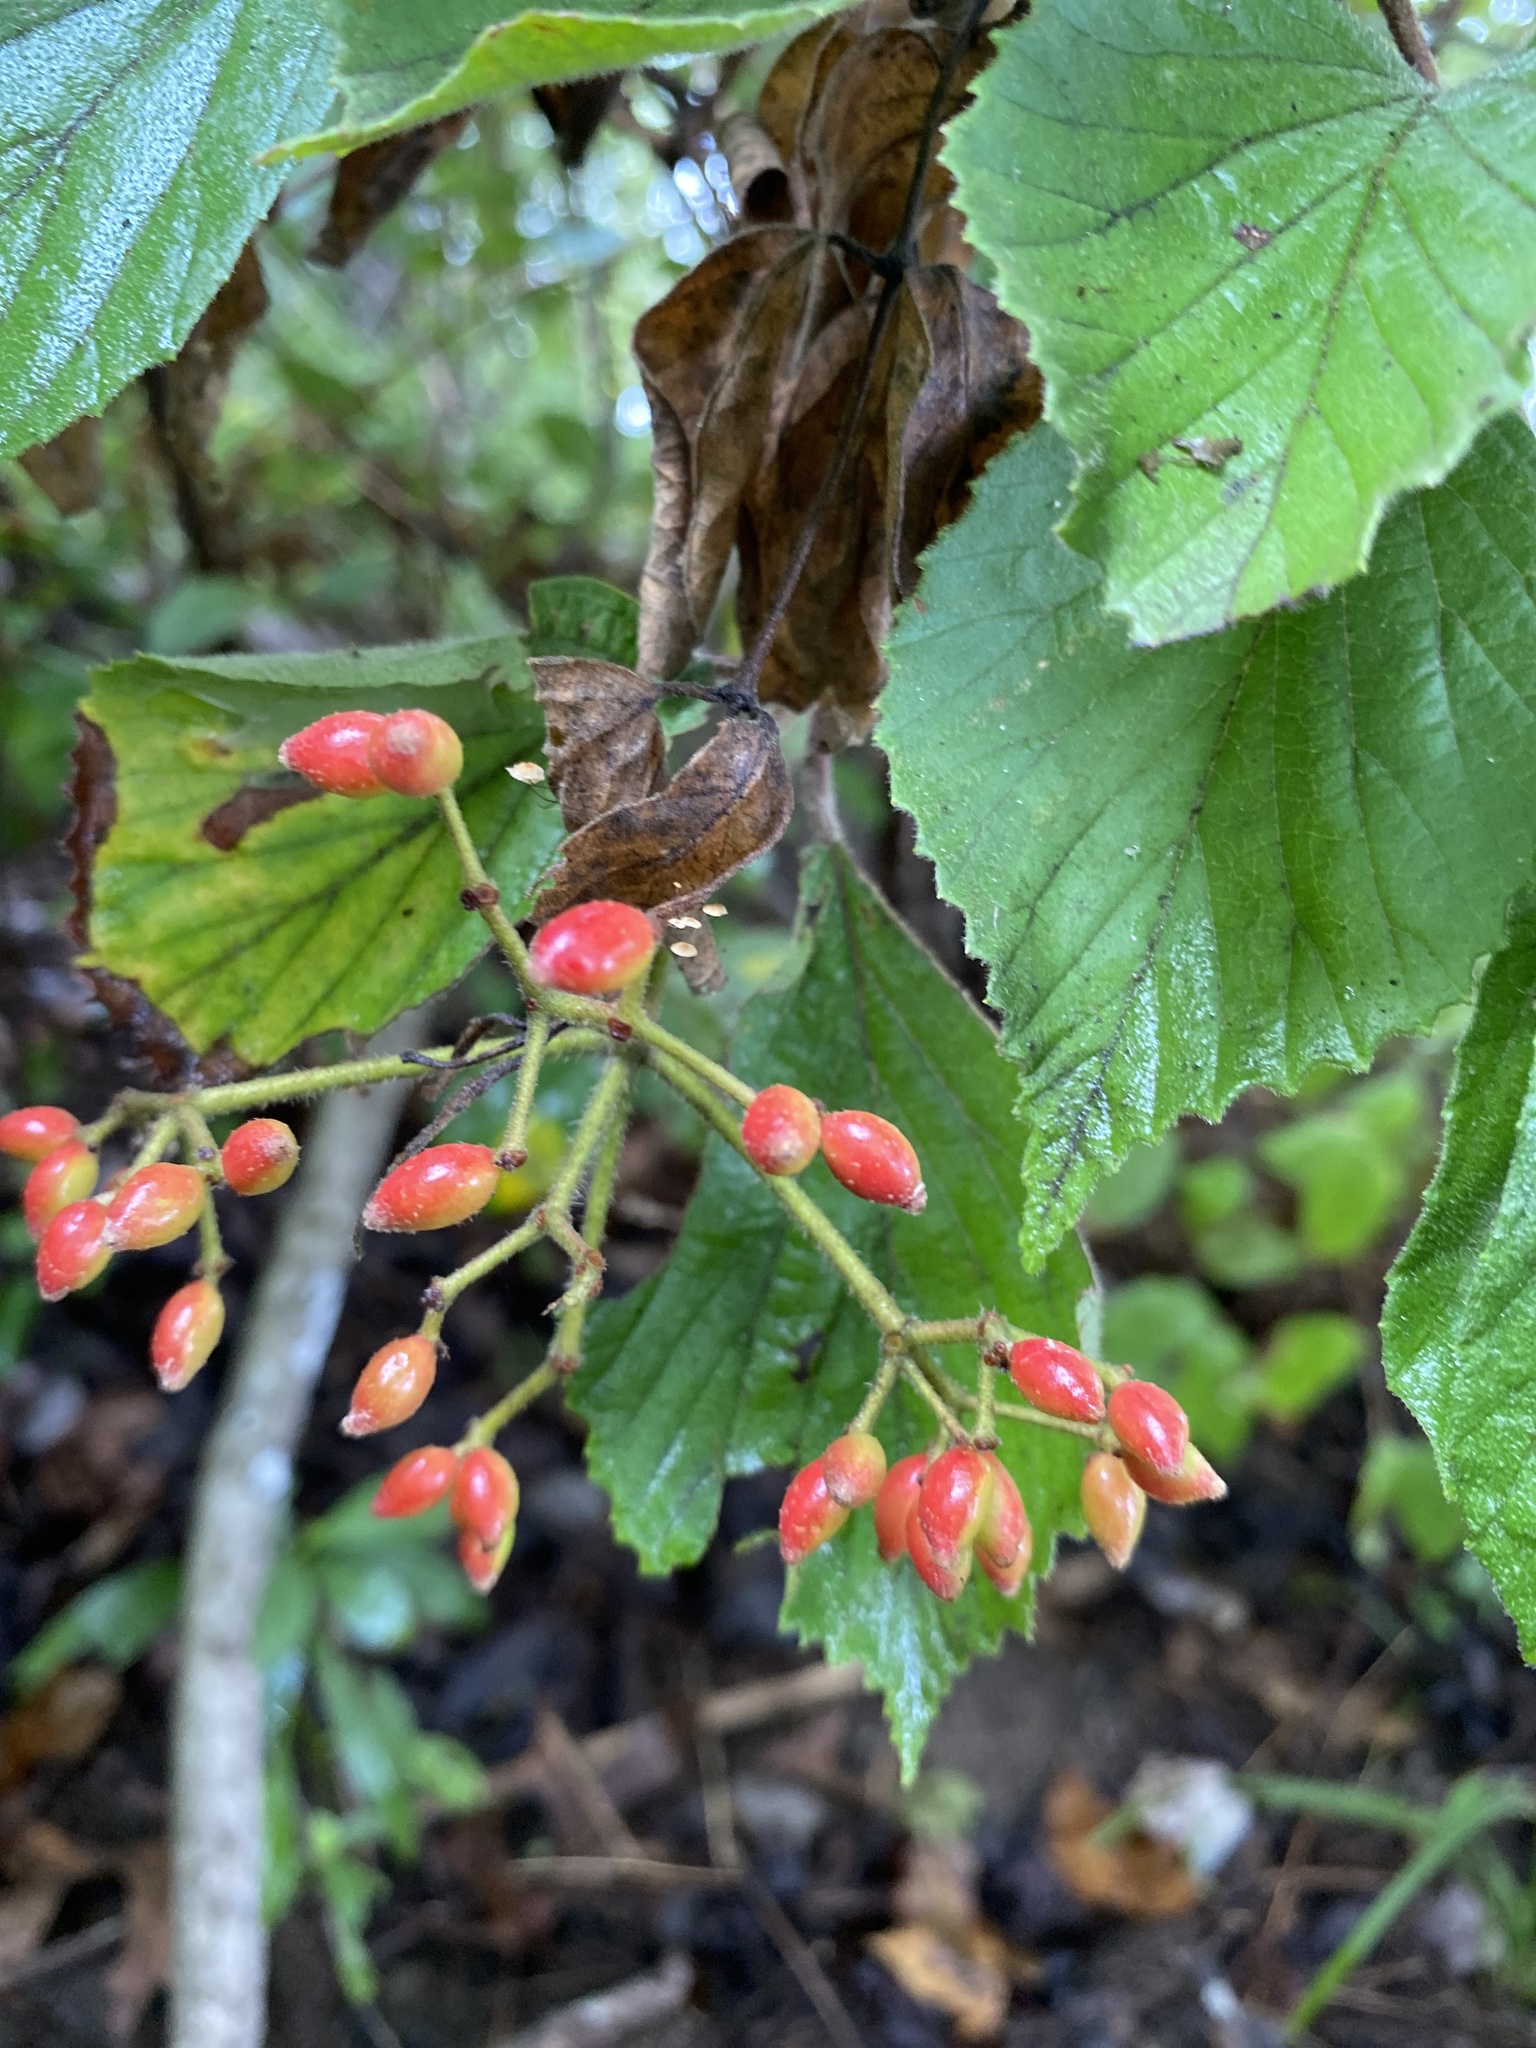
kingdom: Plantae
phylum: Tracheophyta
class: Magnoliopsida
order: Dipsacales
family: Viburnaceae
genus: Viburnum
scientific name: Viburnum dilatatum
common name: Linden arrowwood
